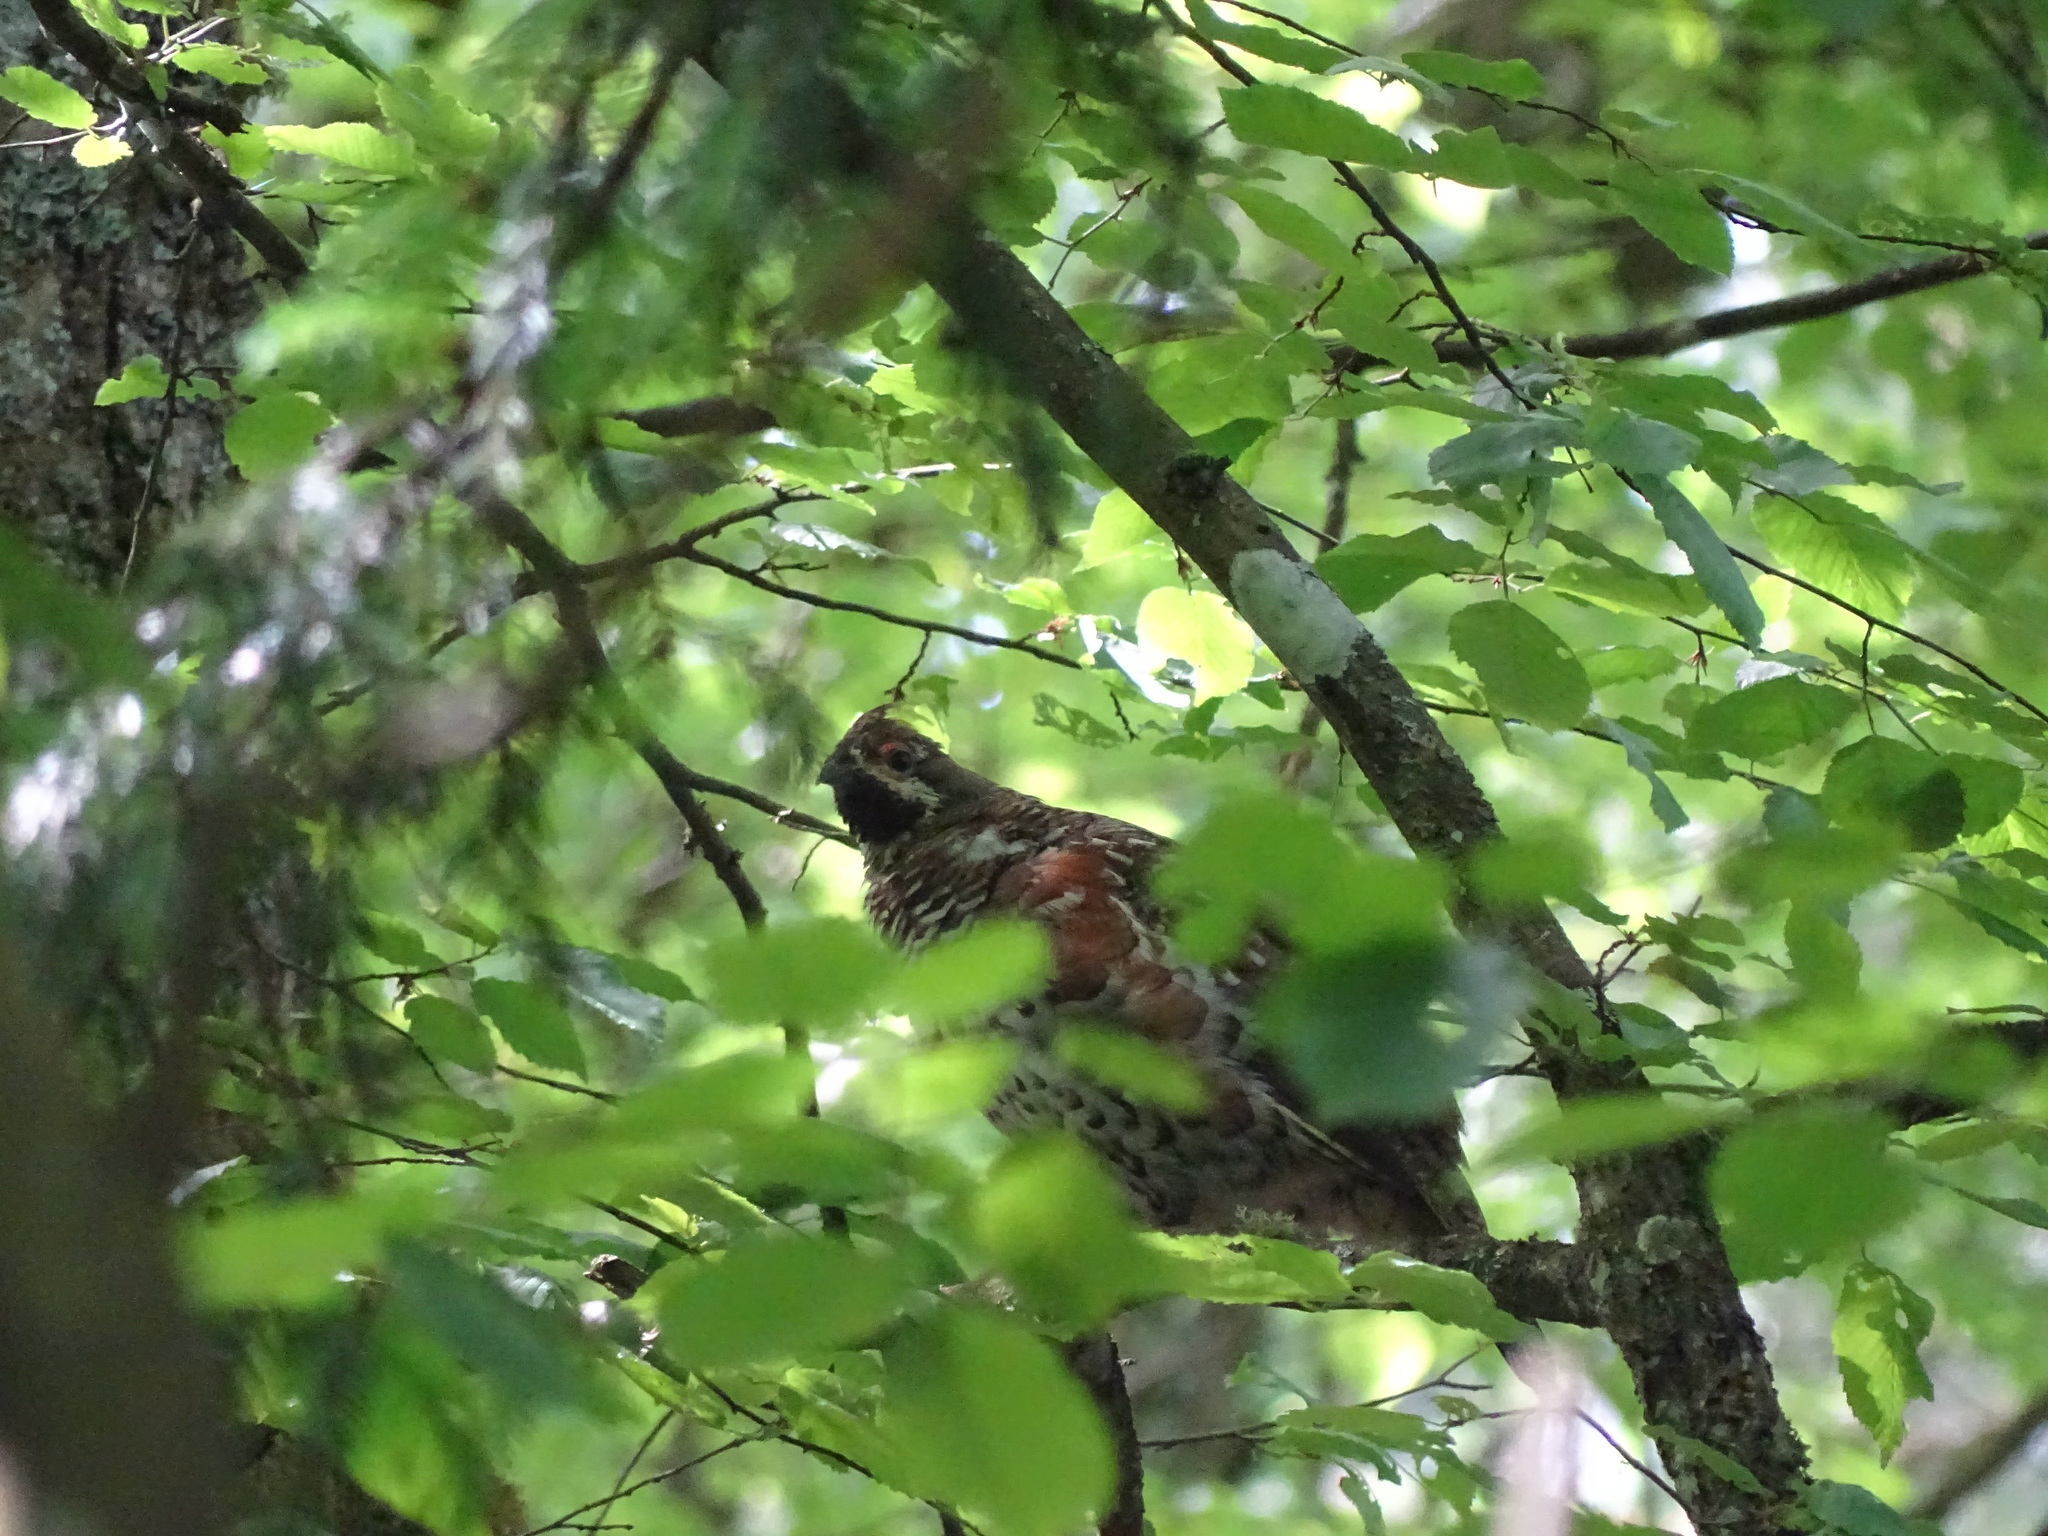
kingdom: Animalia
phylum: Chordata
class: Aves
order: Galliformes
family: Phasianidae
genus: Tetrastes
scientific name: Tetrastes bonasia
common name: Hazel grouse
